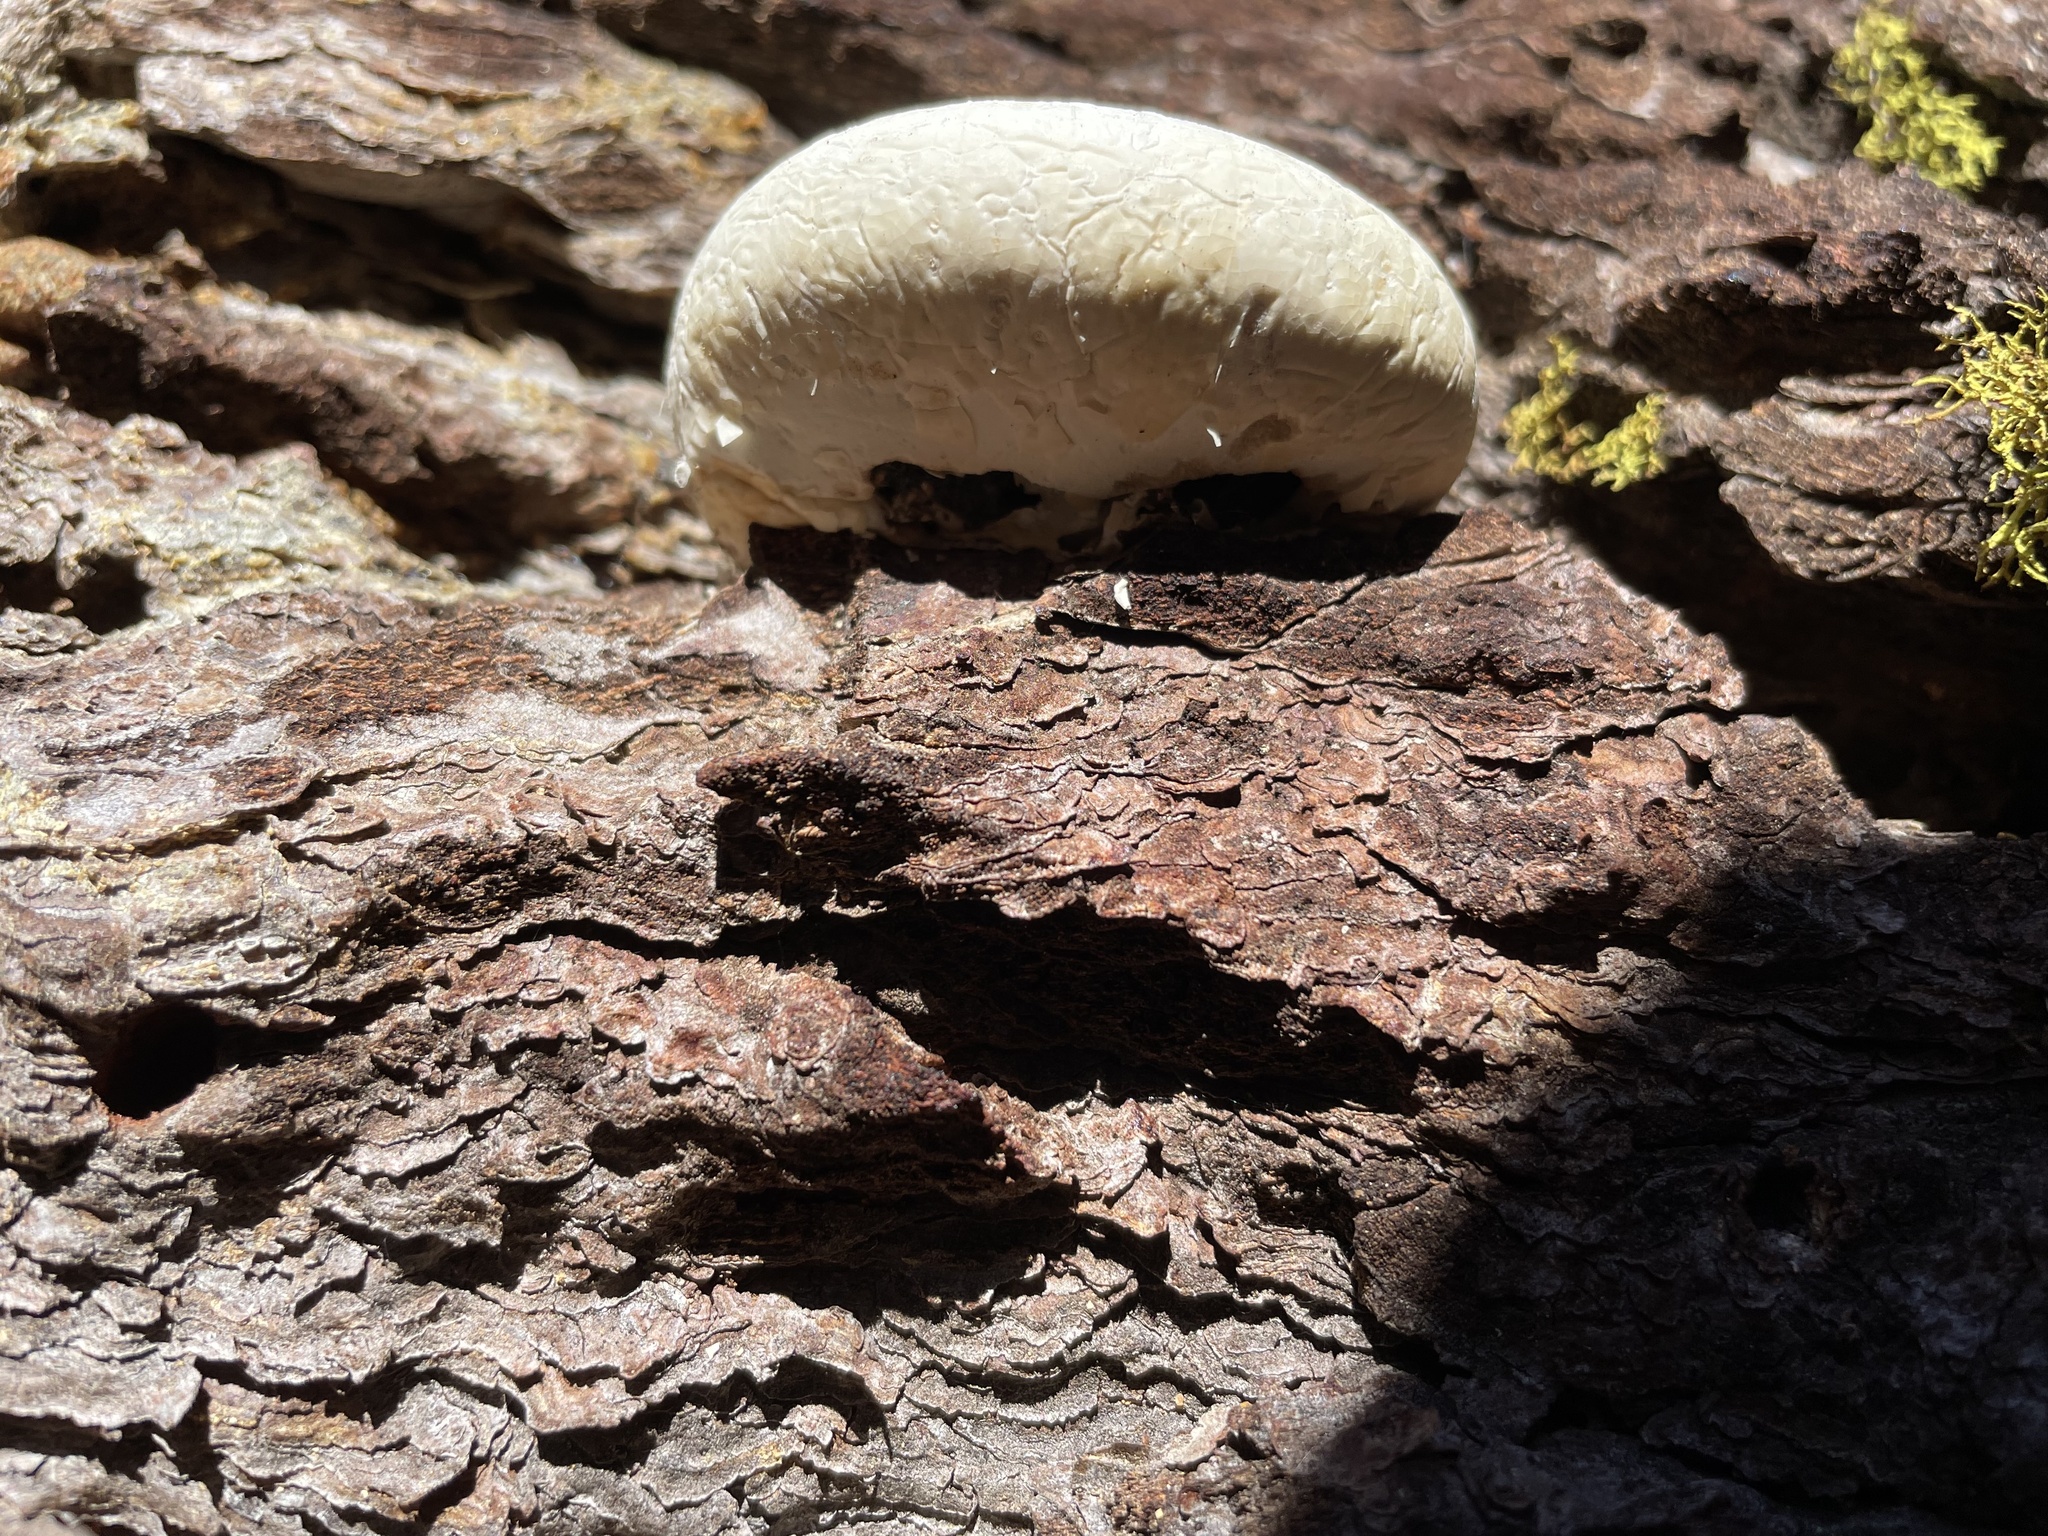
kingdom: Fungi
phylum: Basidiomycota
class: Agaricomycetes
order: Polyporales
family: Polyporaceae
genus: Cryptoporus
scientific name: Cryptoporus volvatus
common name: Veiled polypore
